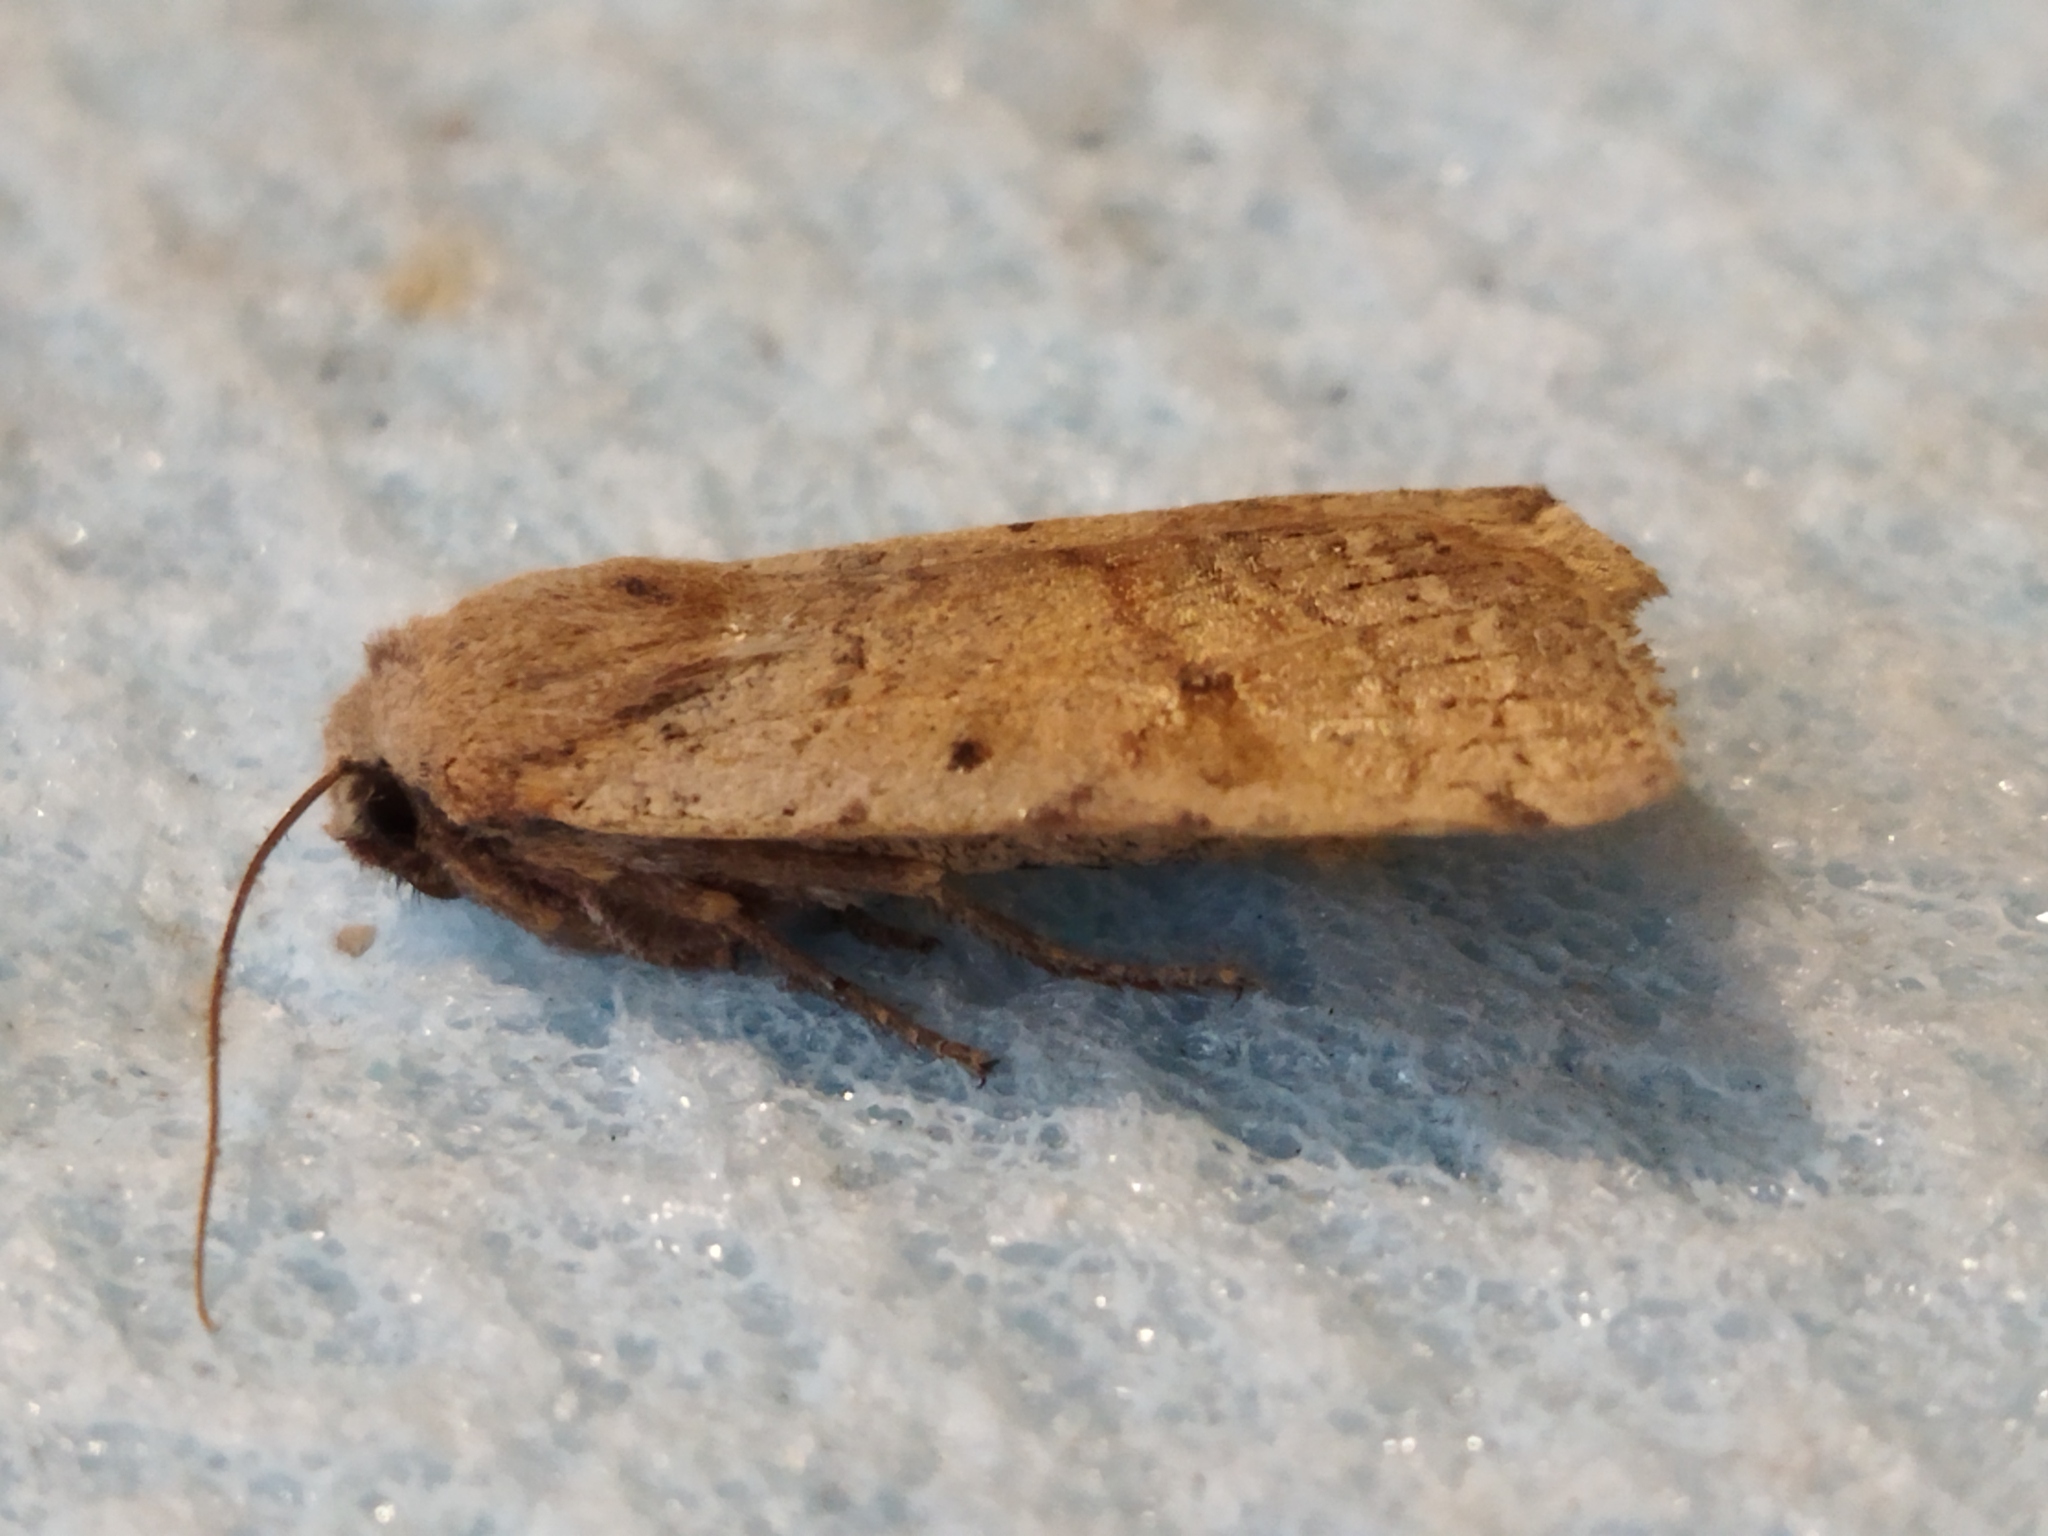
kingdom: Animalia
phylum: Arthropoda
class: Insecta
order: Lepidoptera
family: Noctuidae
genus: Agrochola
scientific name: Agrochola lychnidis
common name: Beaded chestnut
